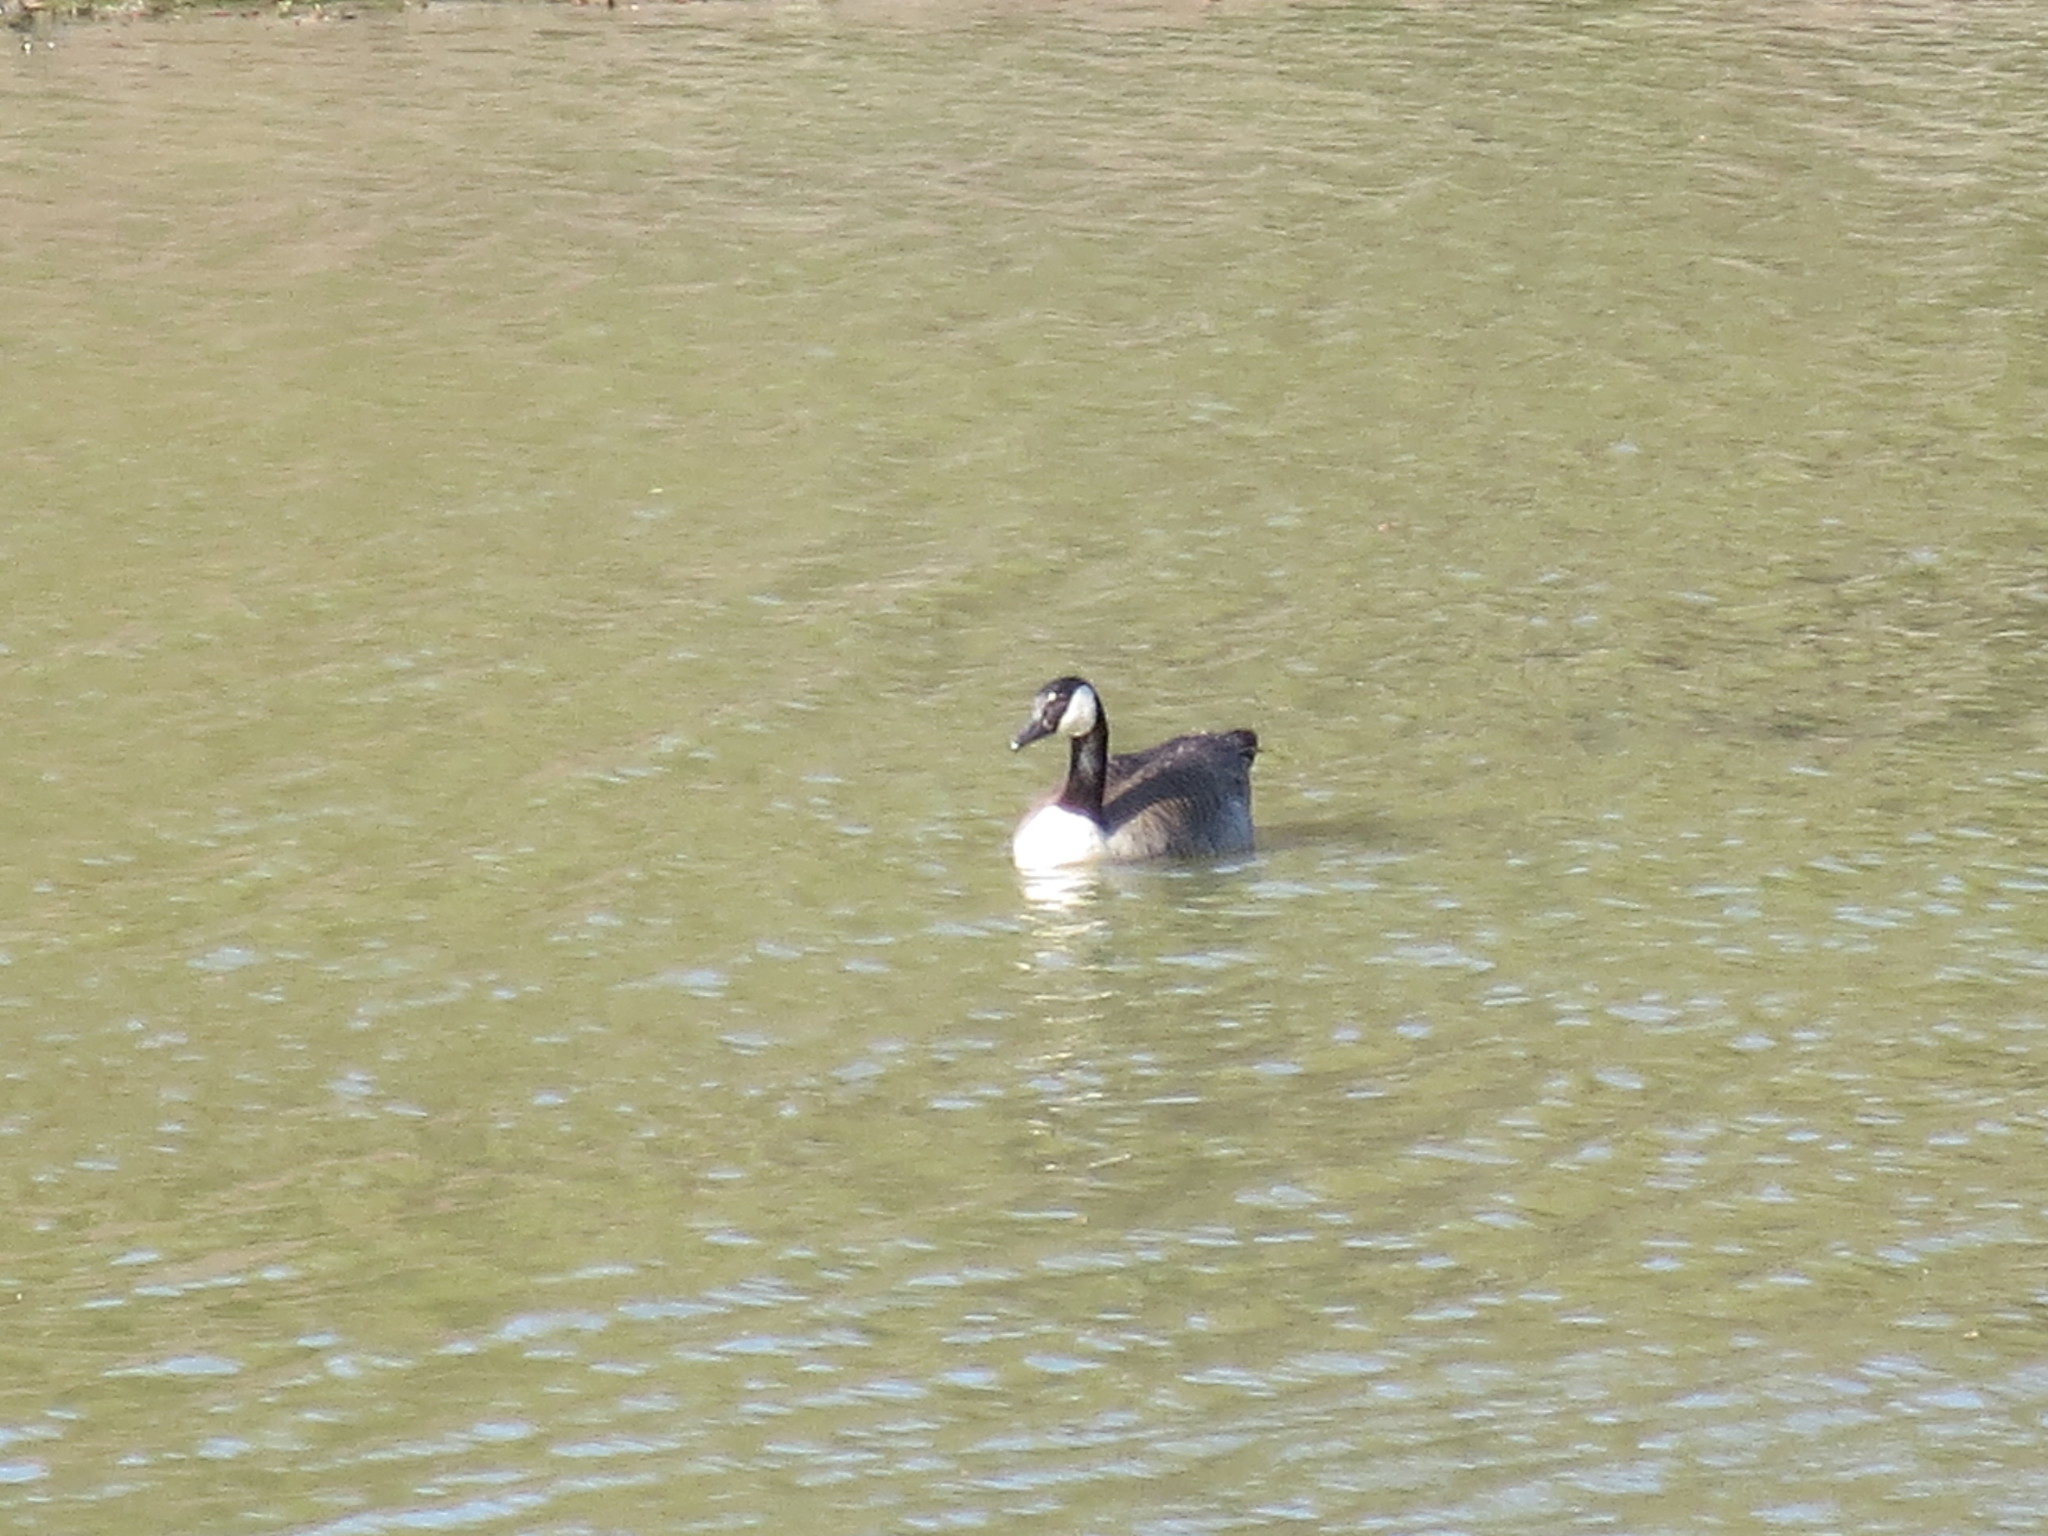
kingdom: Animalia
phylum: Chordata
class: Aves
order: Anseriformes
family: Anatidae
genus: Branta
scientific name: Branta canadensis
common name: Canada goose
